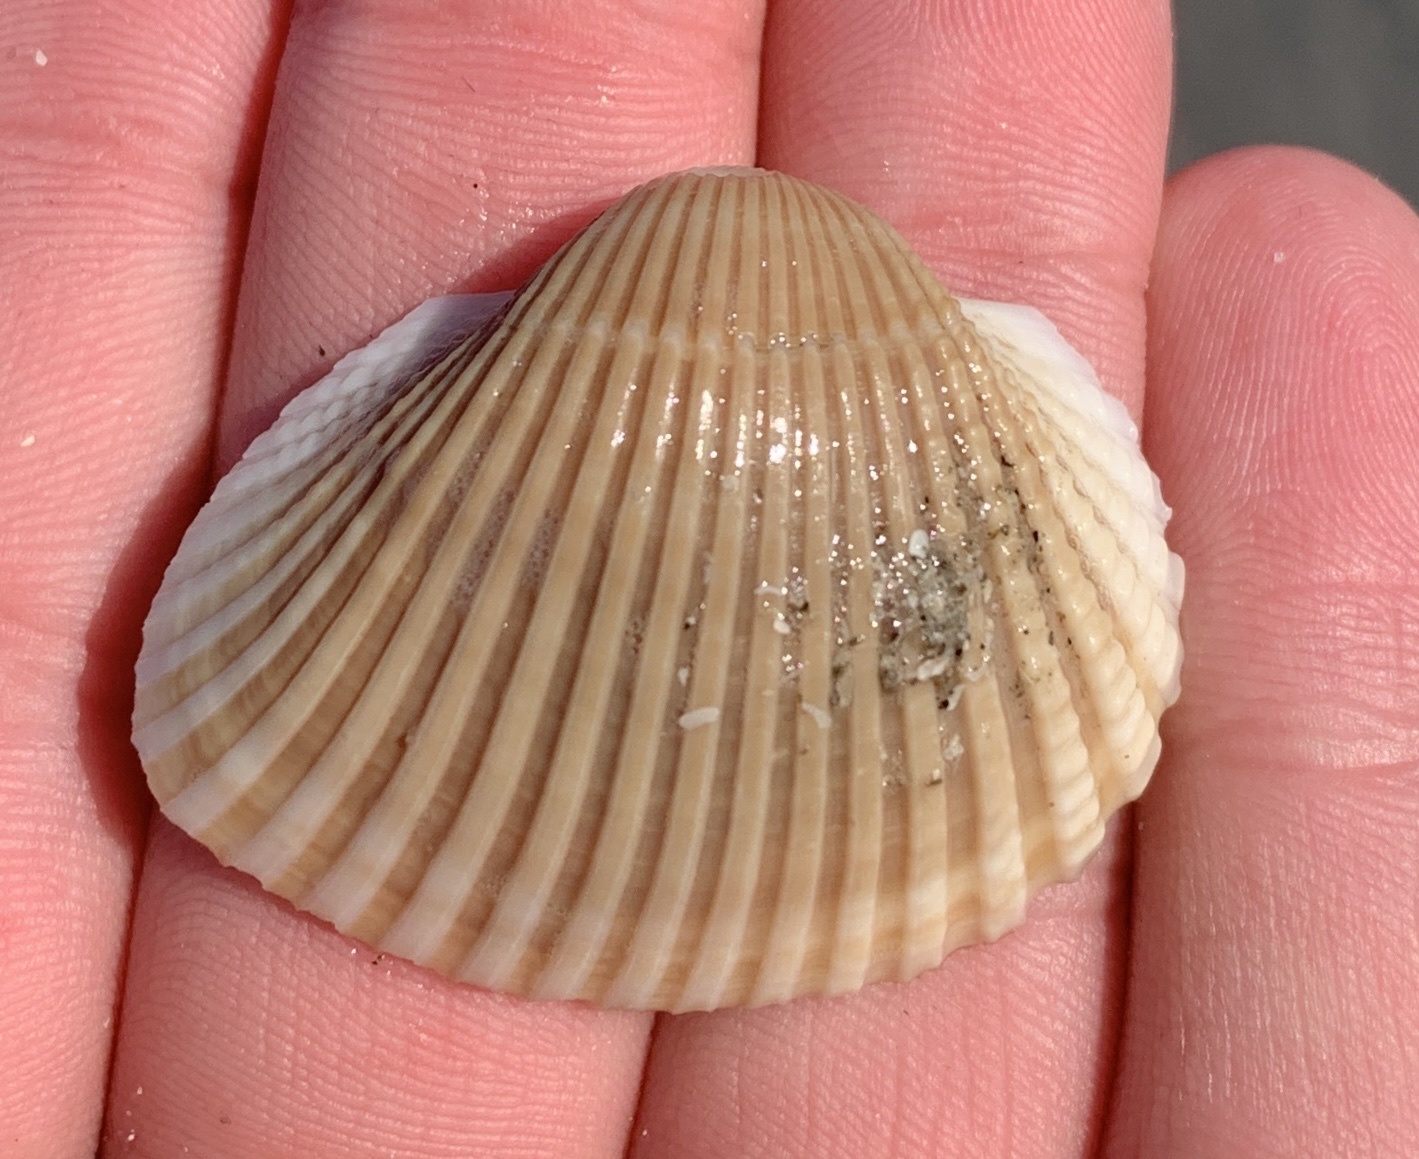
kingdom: Animalia
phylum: Mollusca
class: Bivalvia
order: Arcida
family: Arcidae
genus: Anadara
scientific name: Anadara brasiliana
